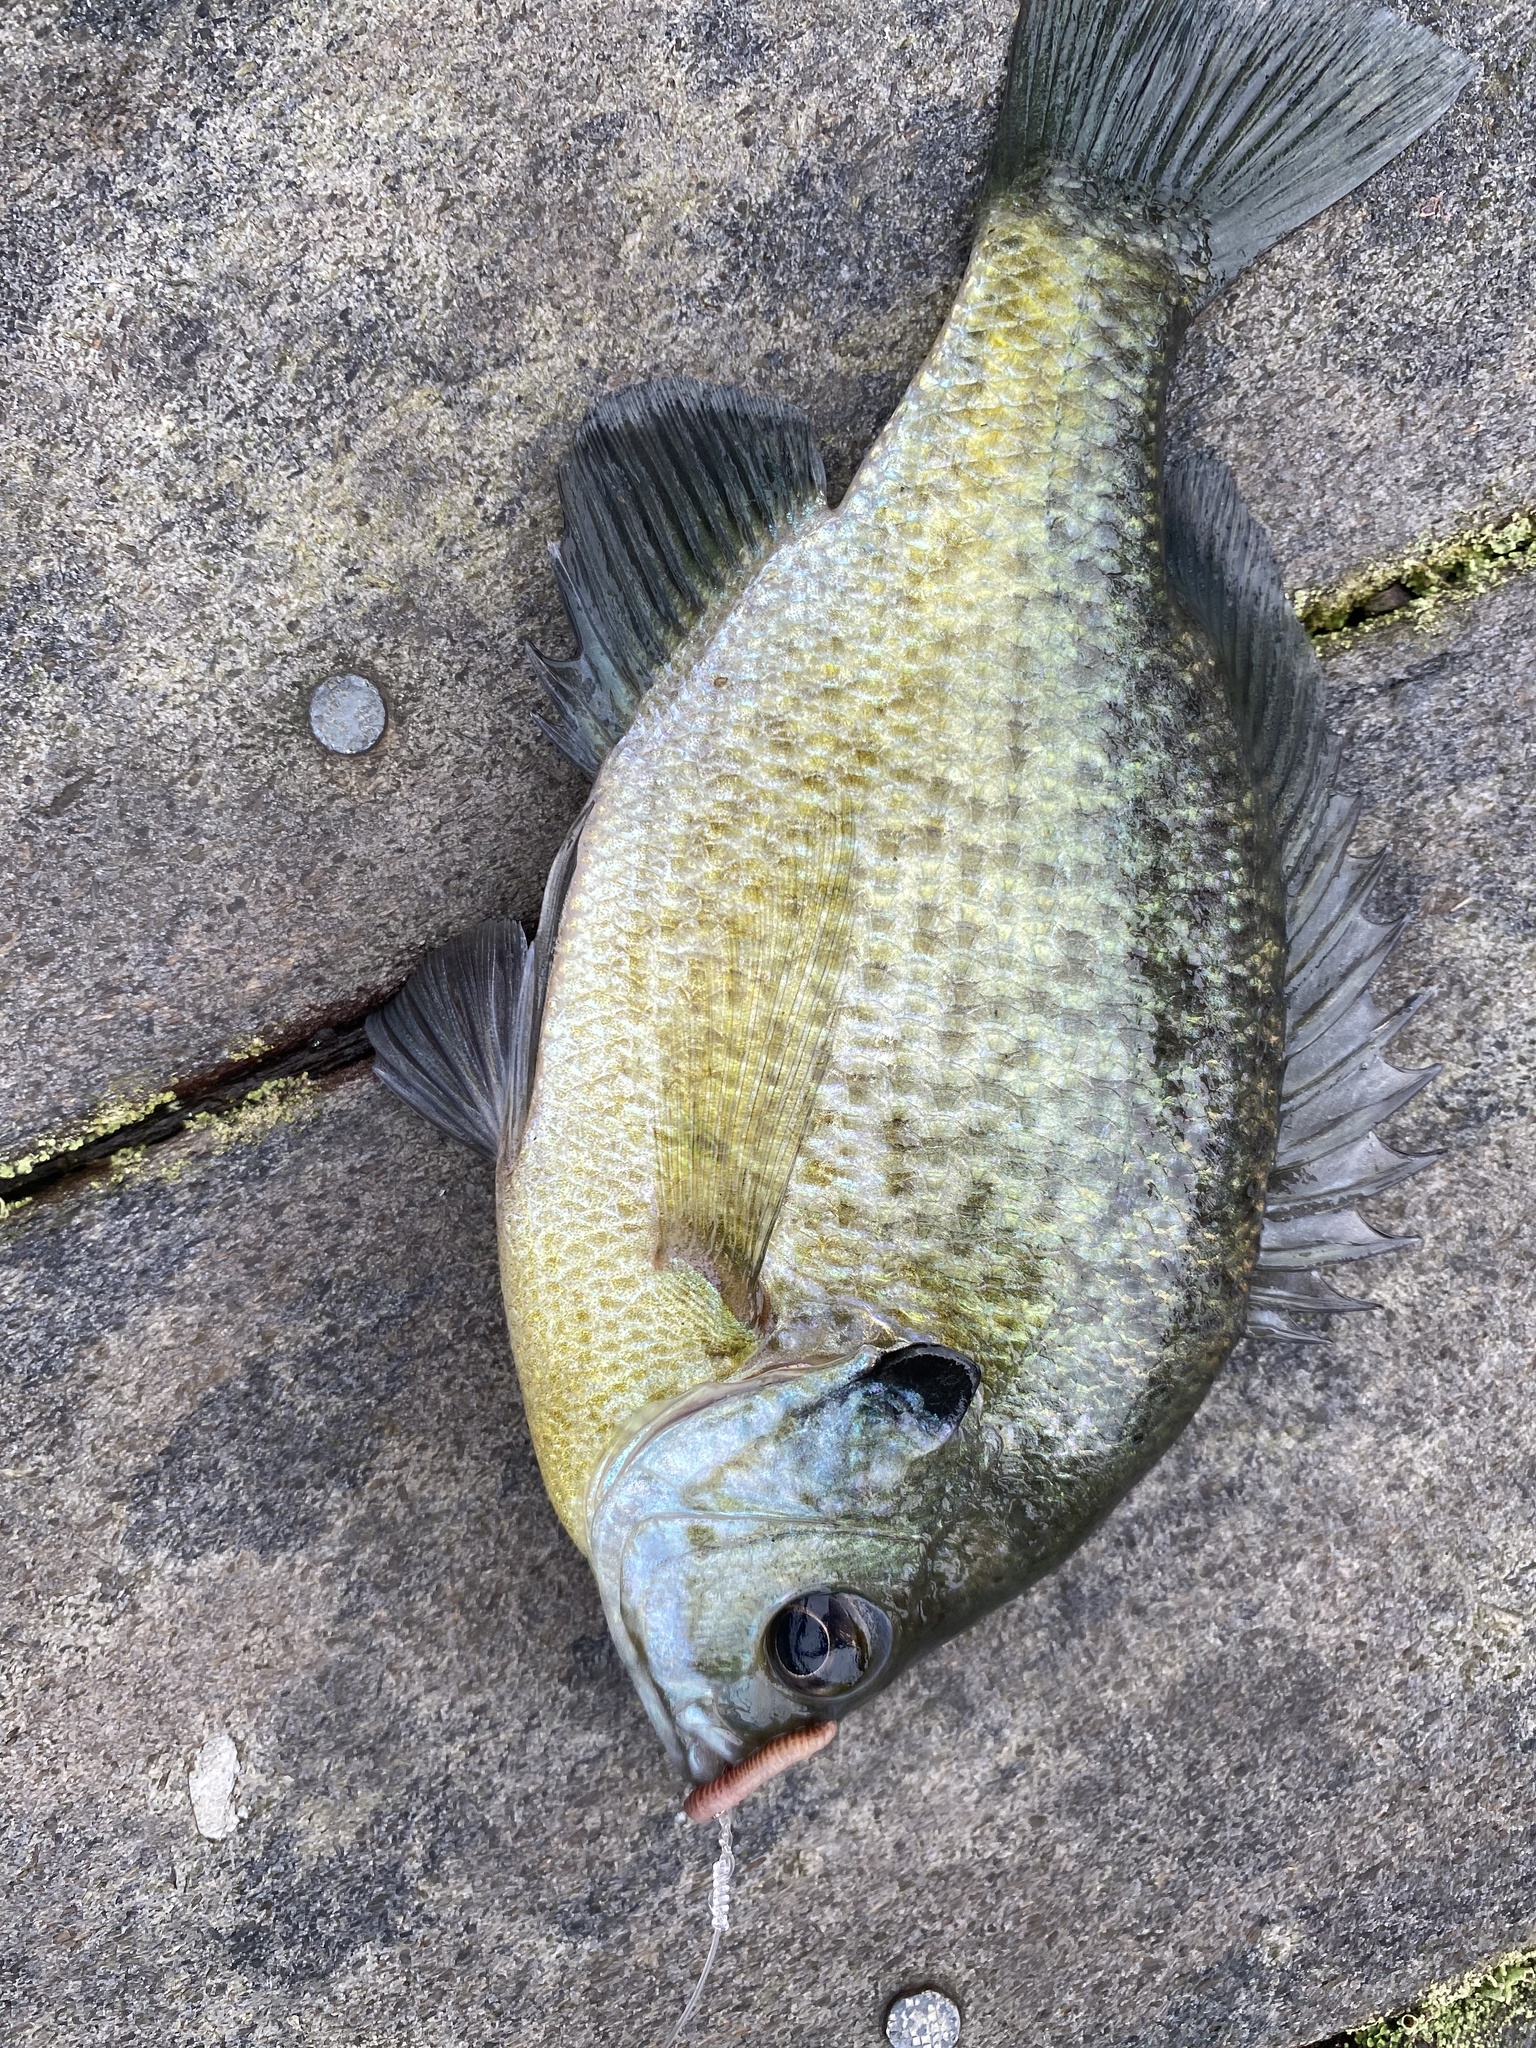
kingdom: Animalia
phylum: Chordata
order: Perciformes
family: Centrarchidae
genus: Lepomis
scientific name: Lepomis macrochirus
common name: Bluegill
